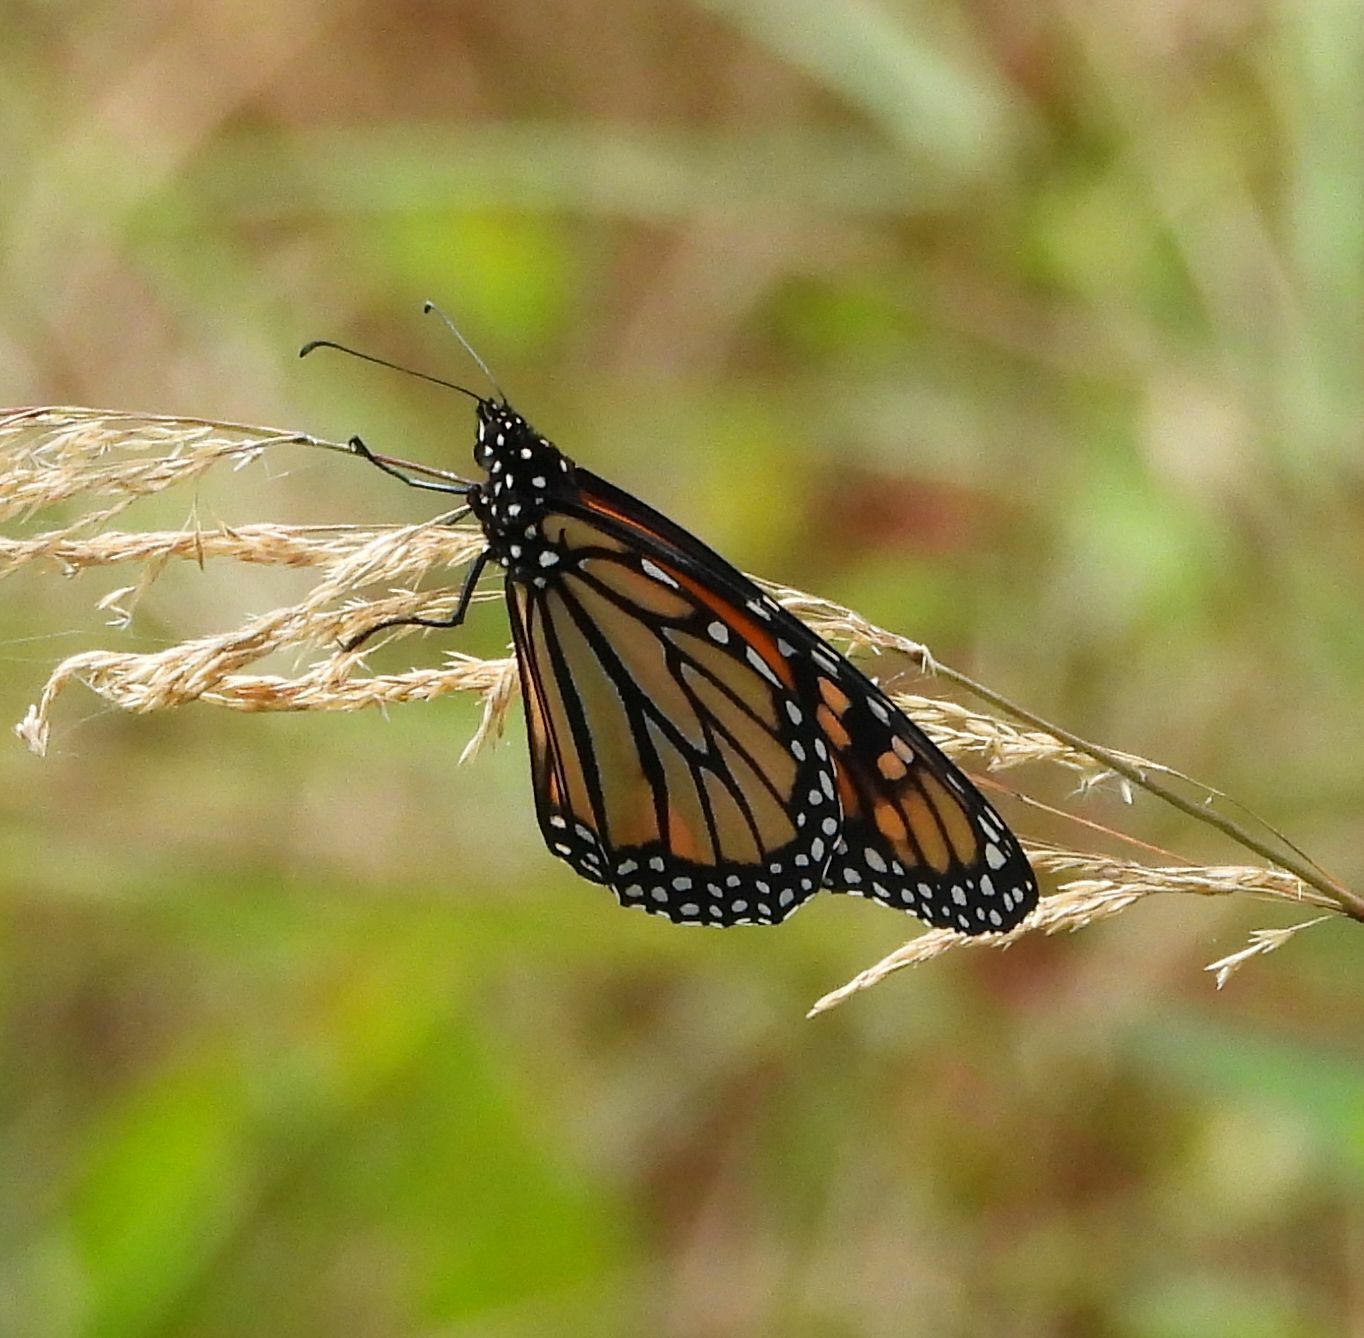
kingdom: Animalia
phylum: Arthropoda
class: Insecta
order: Lepidoptera
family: Nymphalidae
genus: Danaus
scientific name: Danaus plexippus
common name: Monarch
